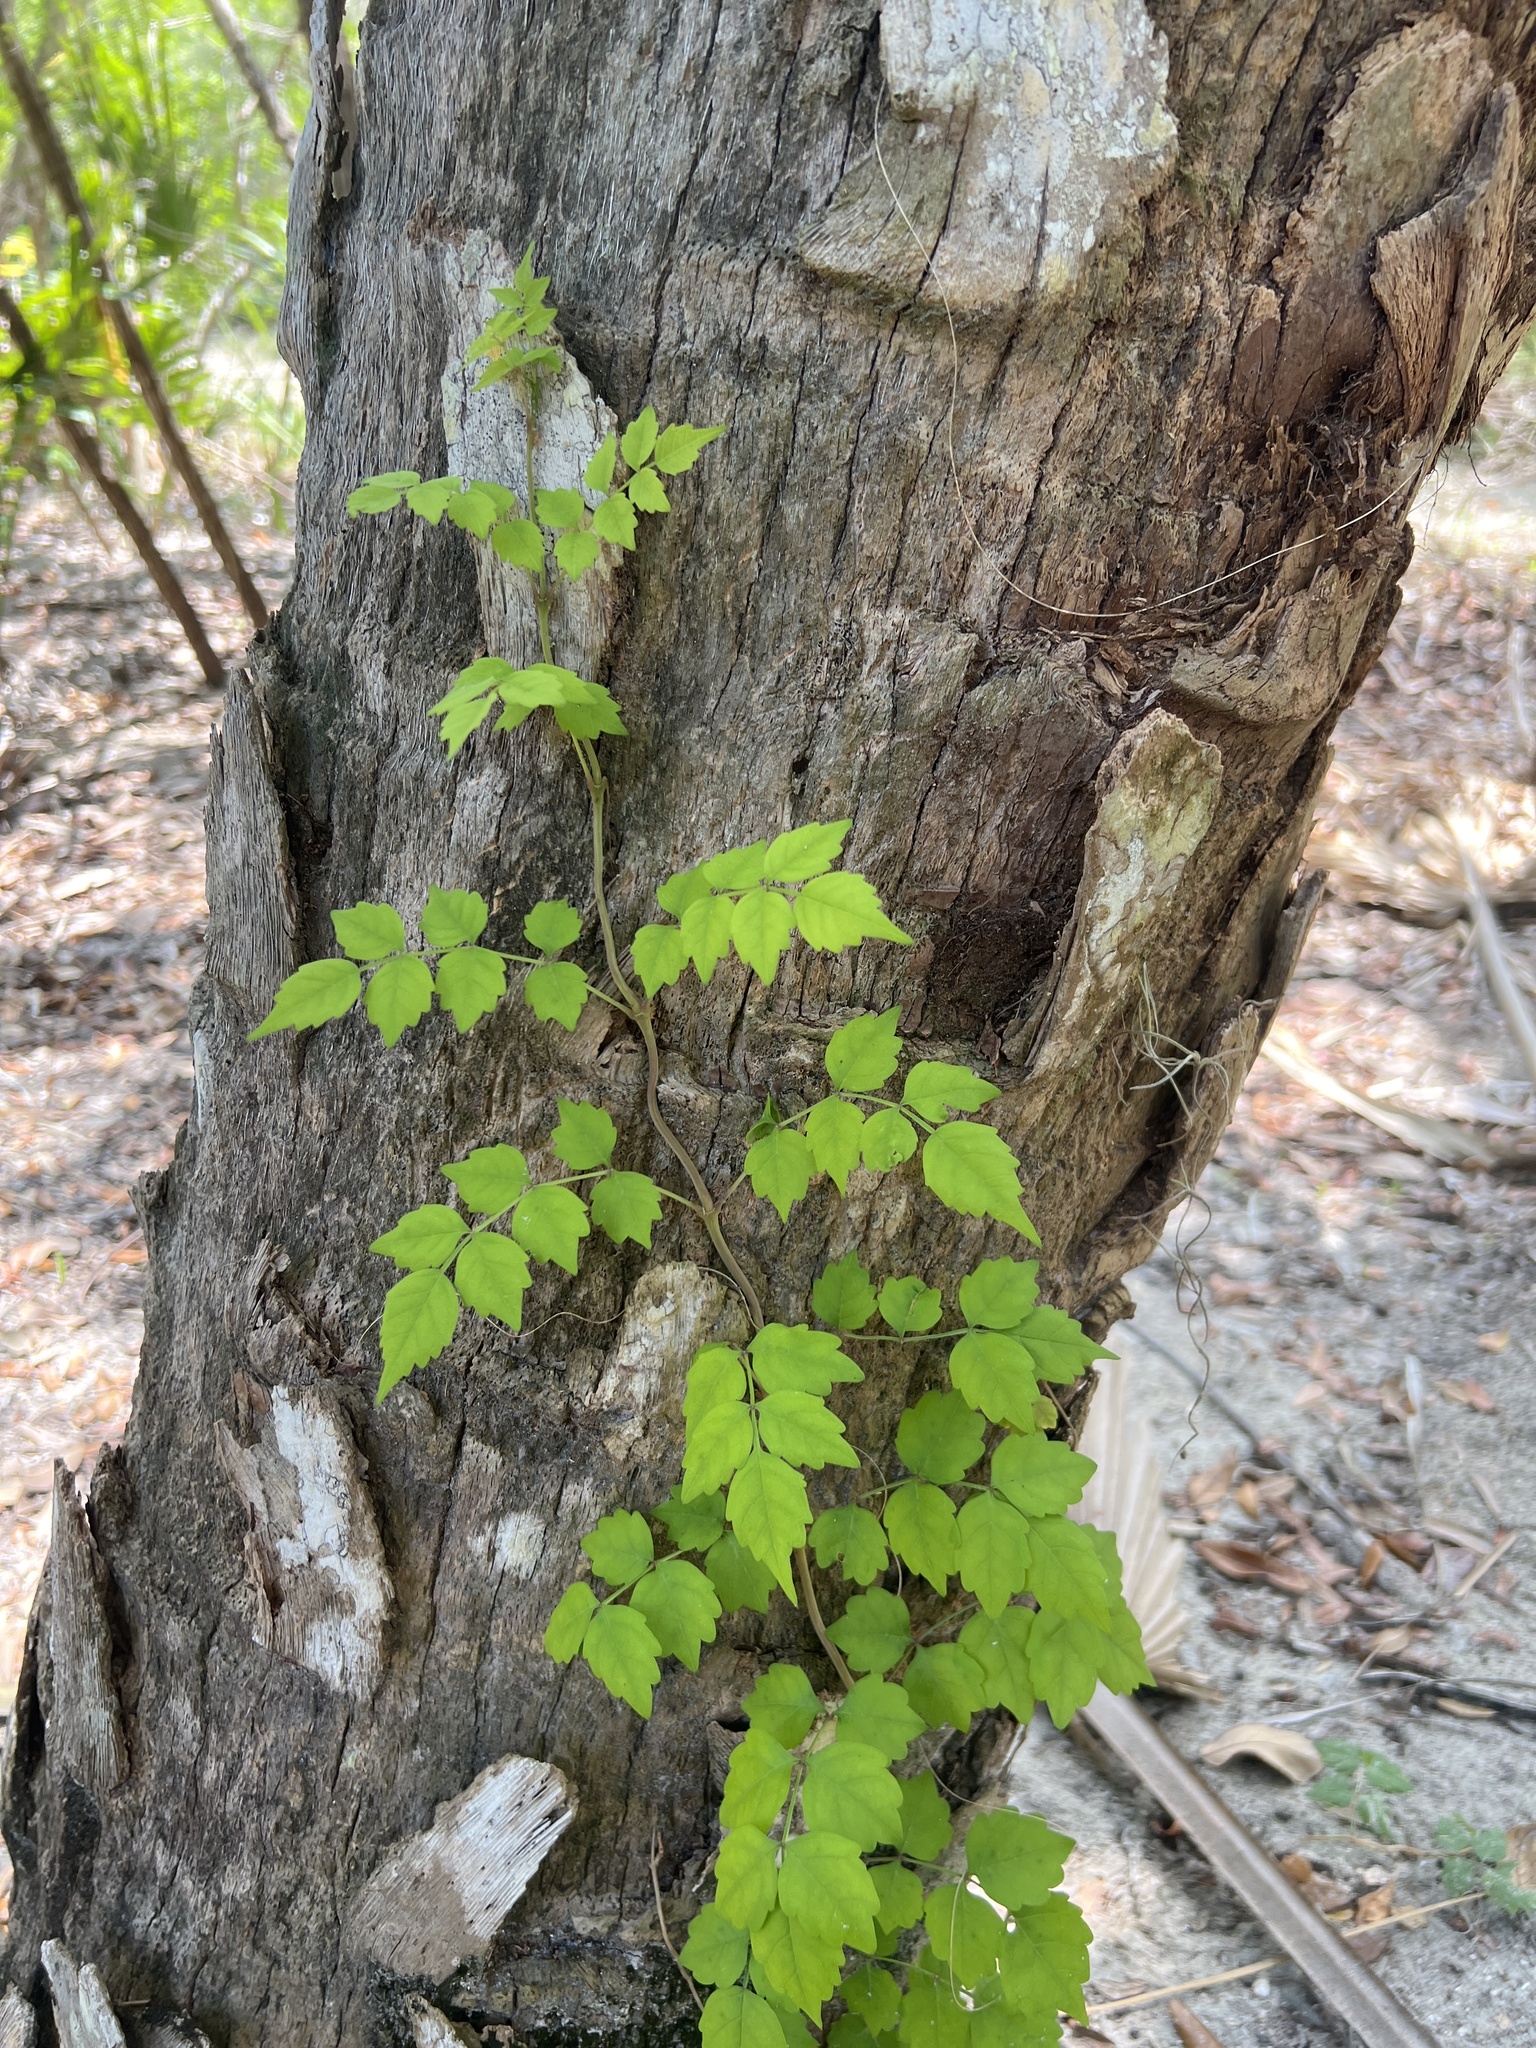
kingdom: Plantae
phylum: Tracheophyta
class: Magnoliopsida
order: Lamiales
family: Bignoniaceae
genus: Campsis
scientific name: Campsis radicans
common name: Trumpet-creeper
